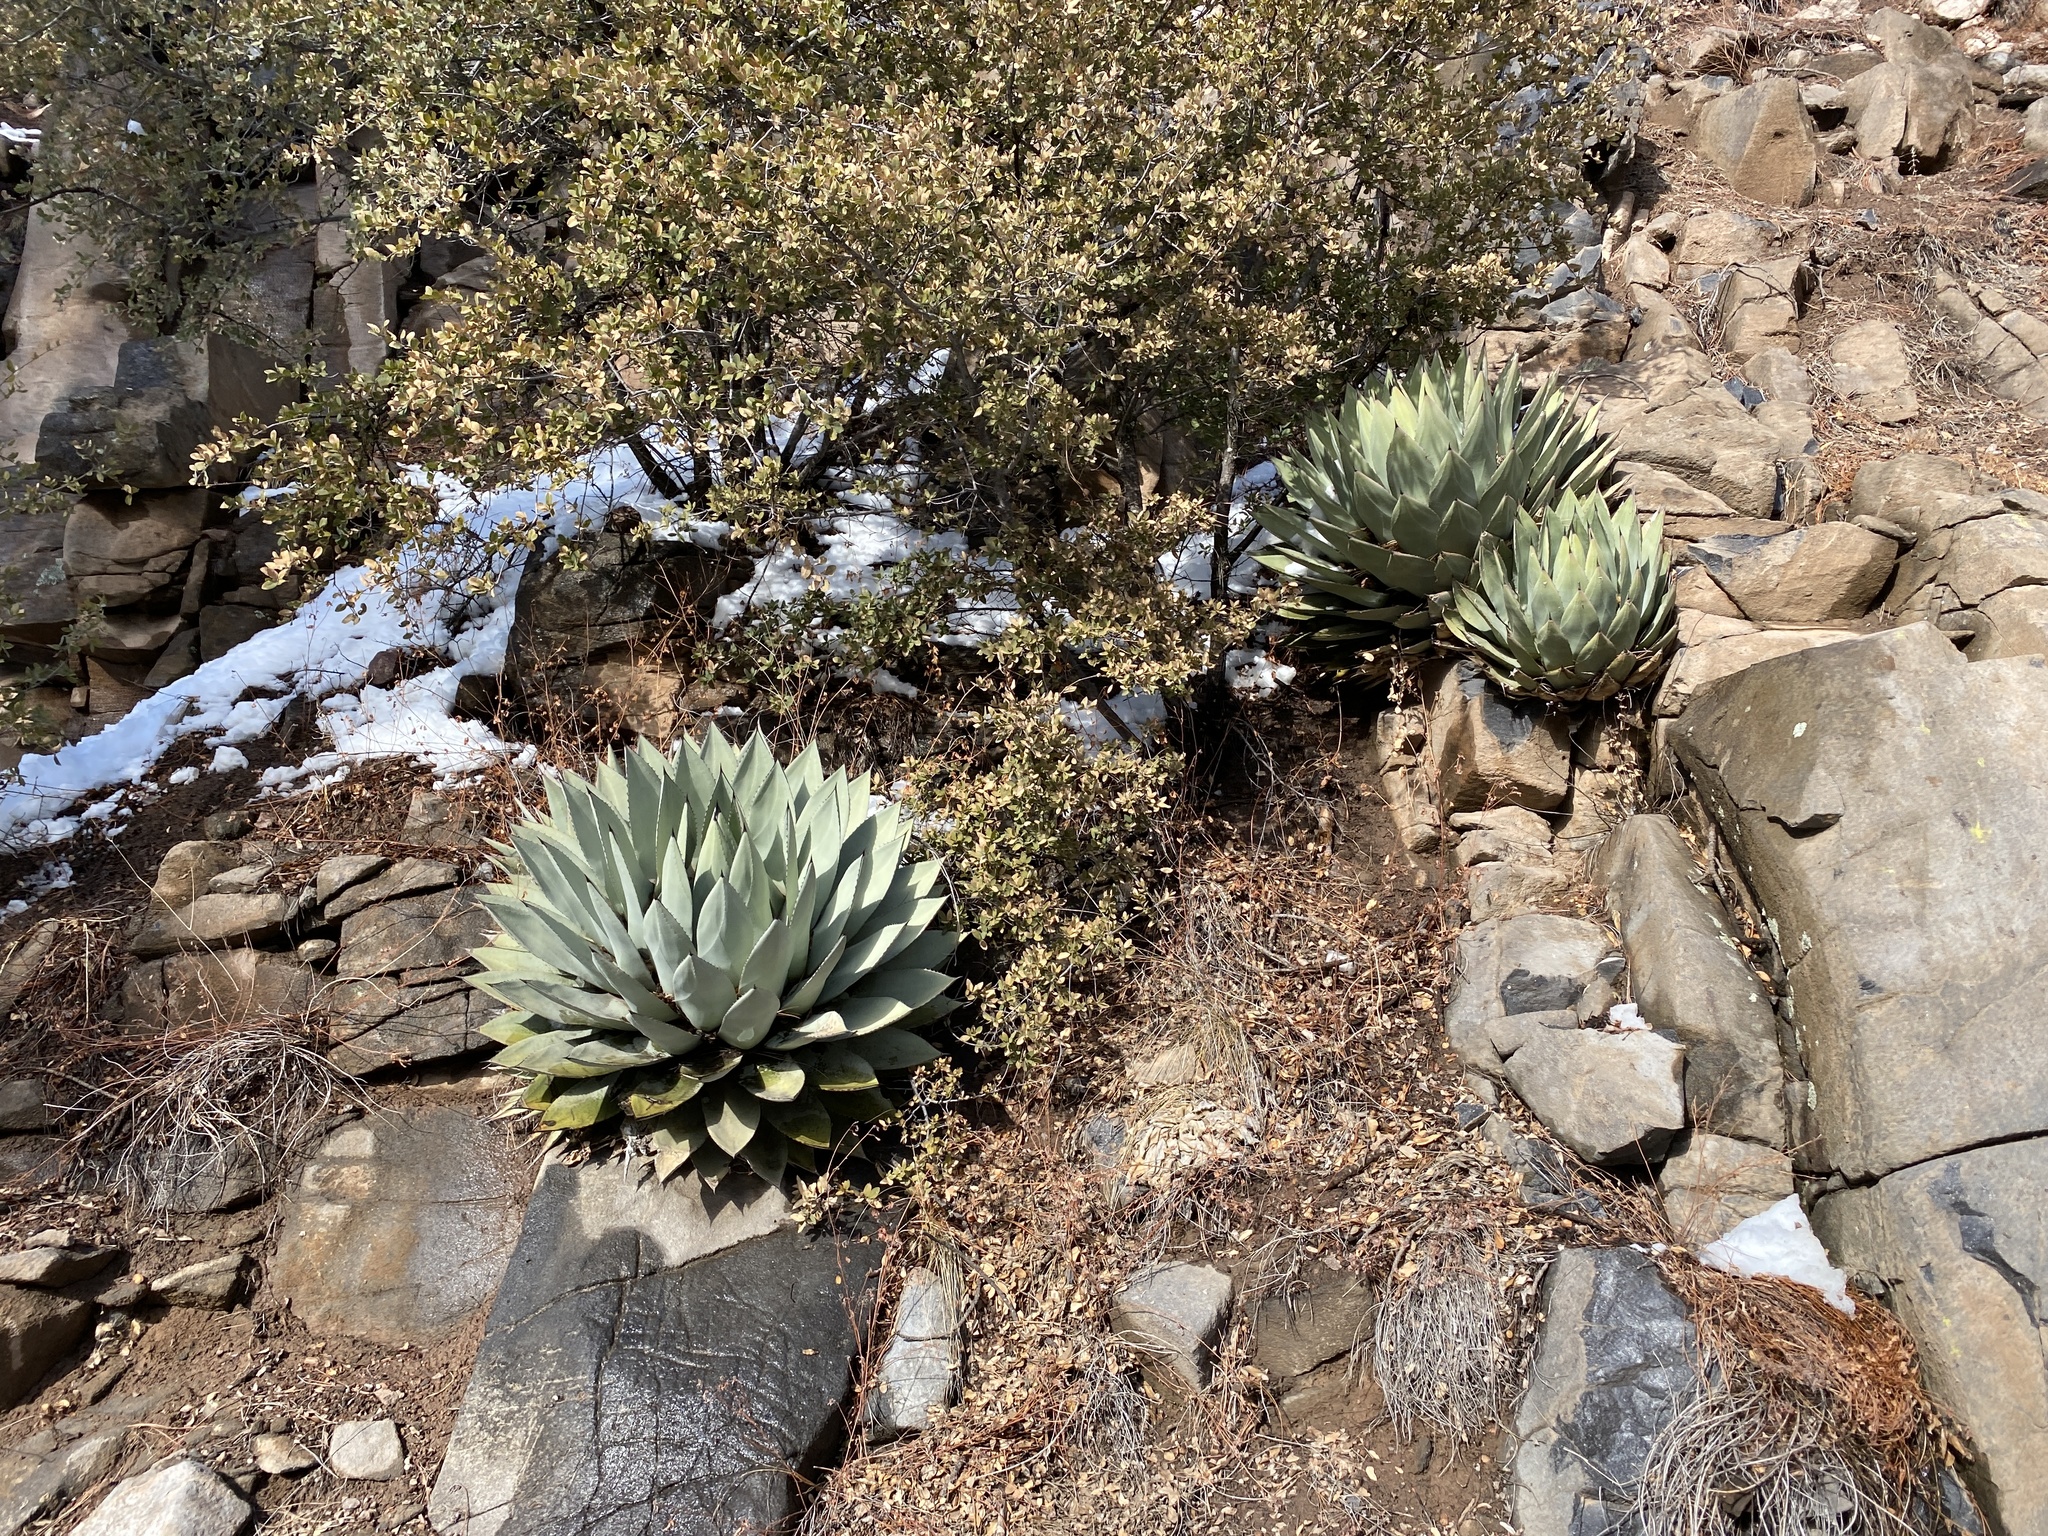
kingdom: Plantae
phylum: Tracheophyta
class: Liliopsida
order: Asparagales
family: Asparagaceae
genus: Agave
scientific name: Agave parryi
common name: Parry's agave
